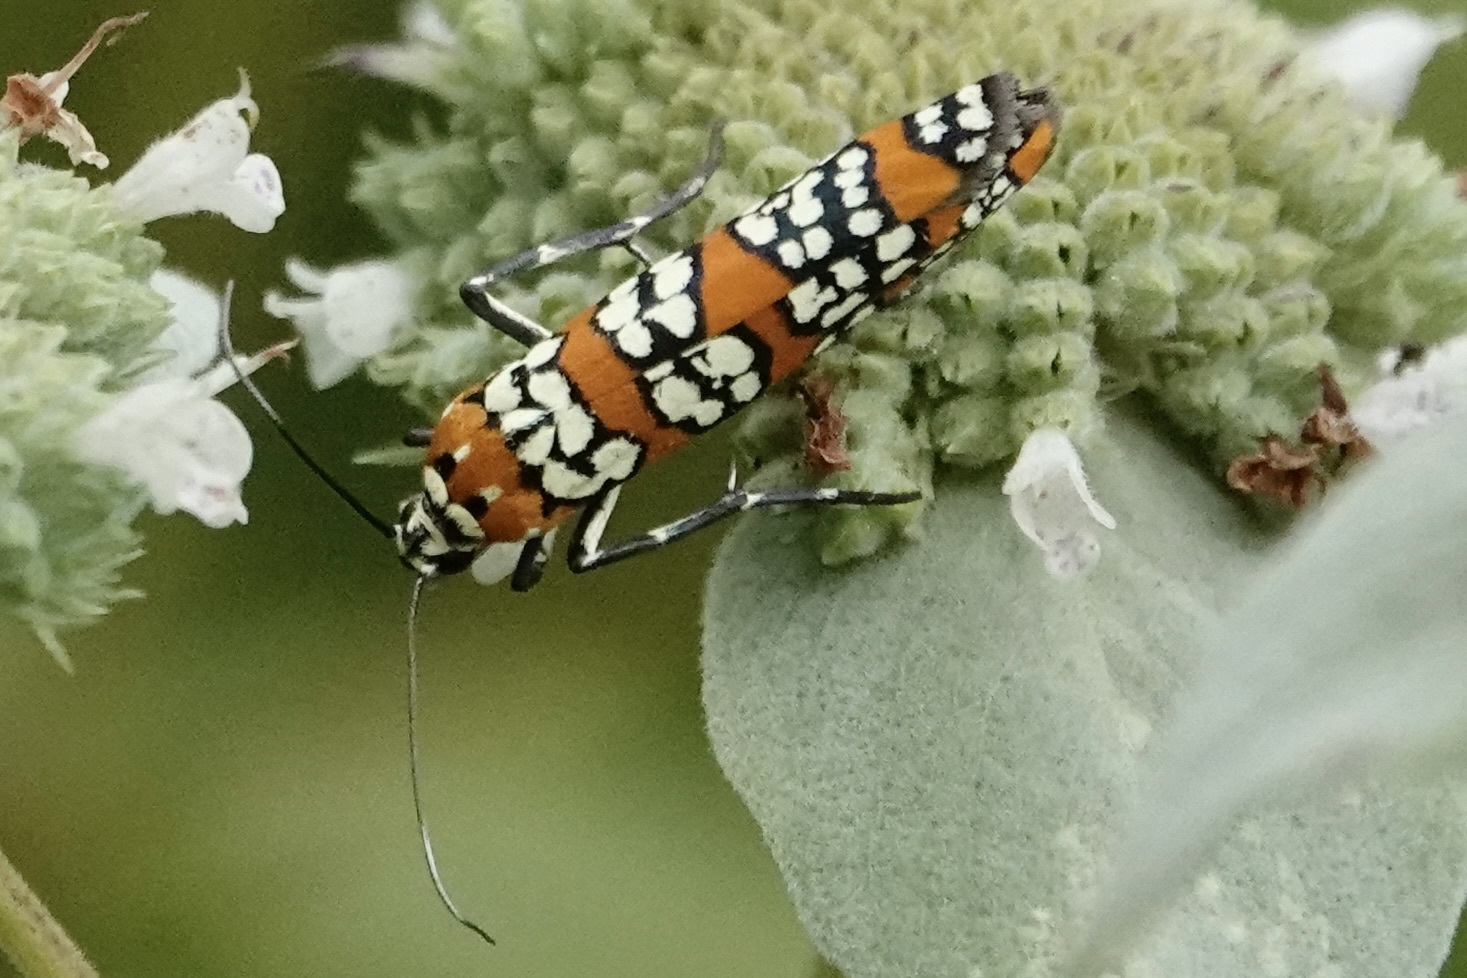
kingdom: Animalia
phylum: Arthropoda
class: Insecta
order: Lepidoptera
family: Attevidae
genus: Atteva
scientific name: Atteva punctella
